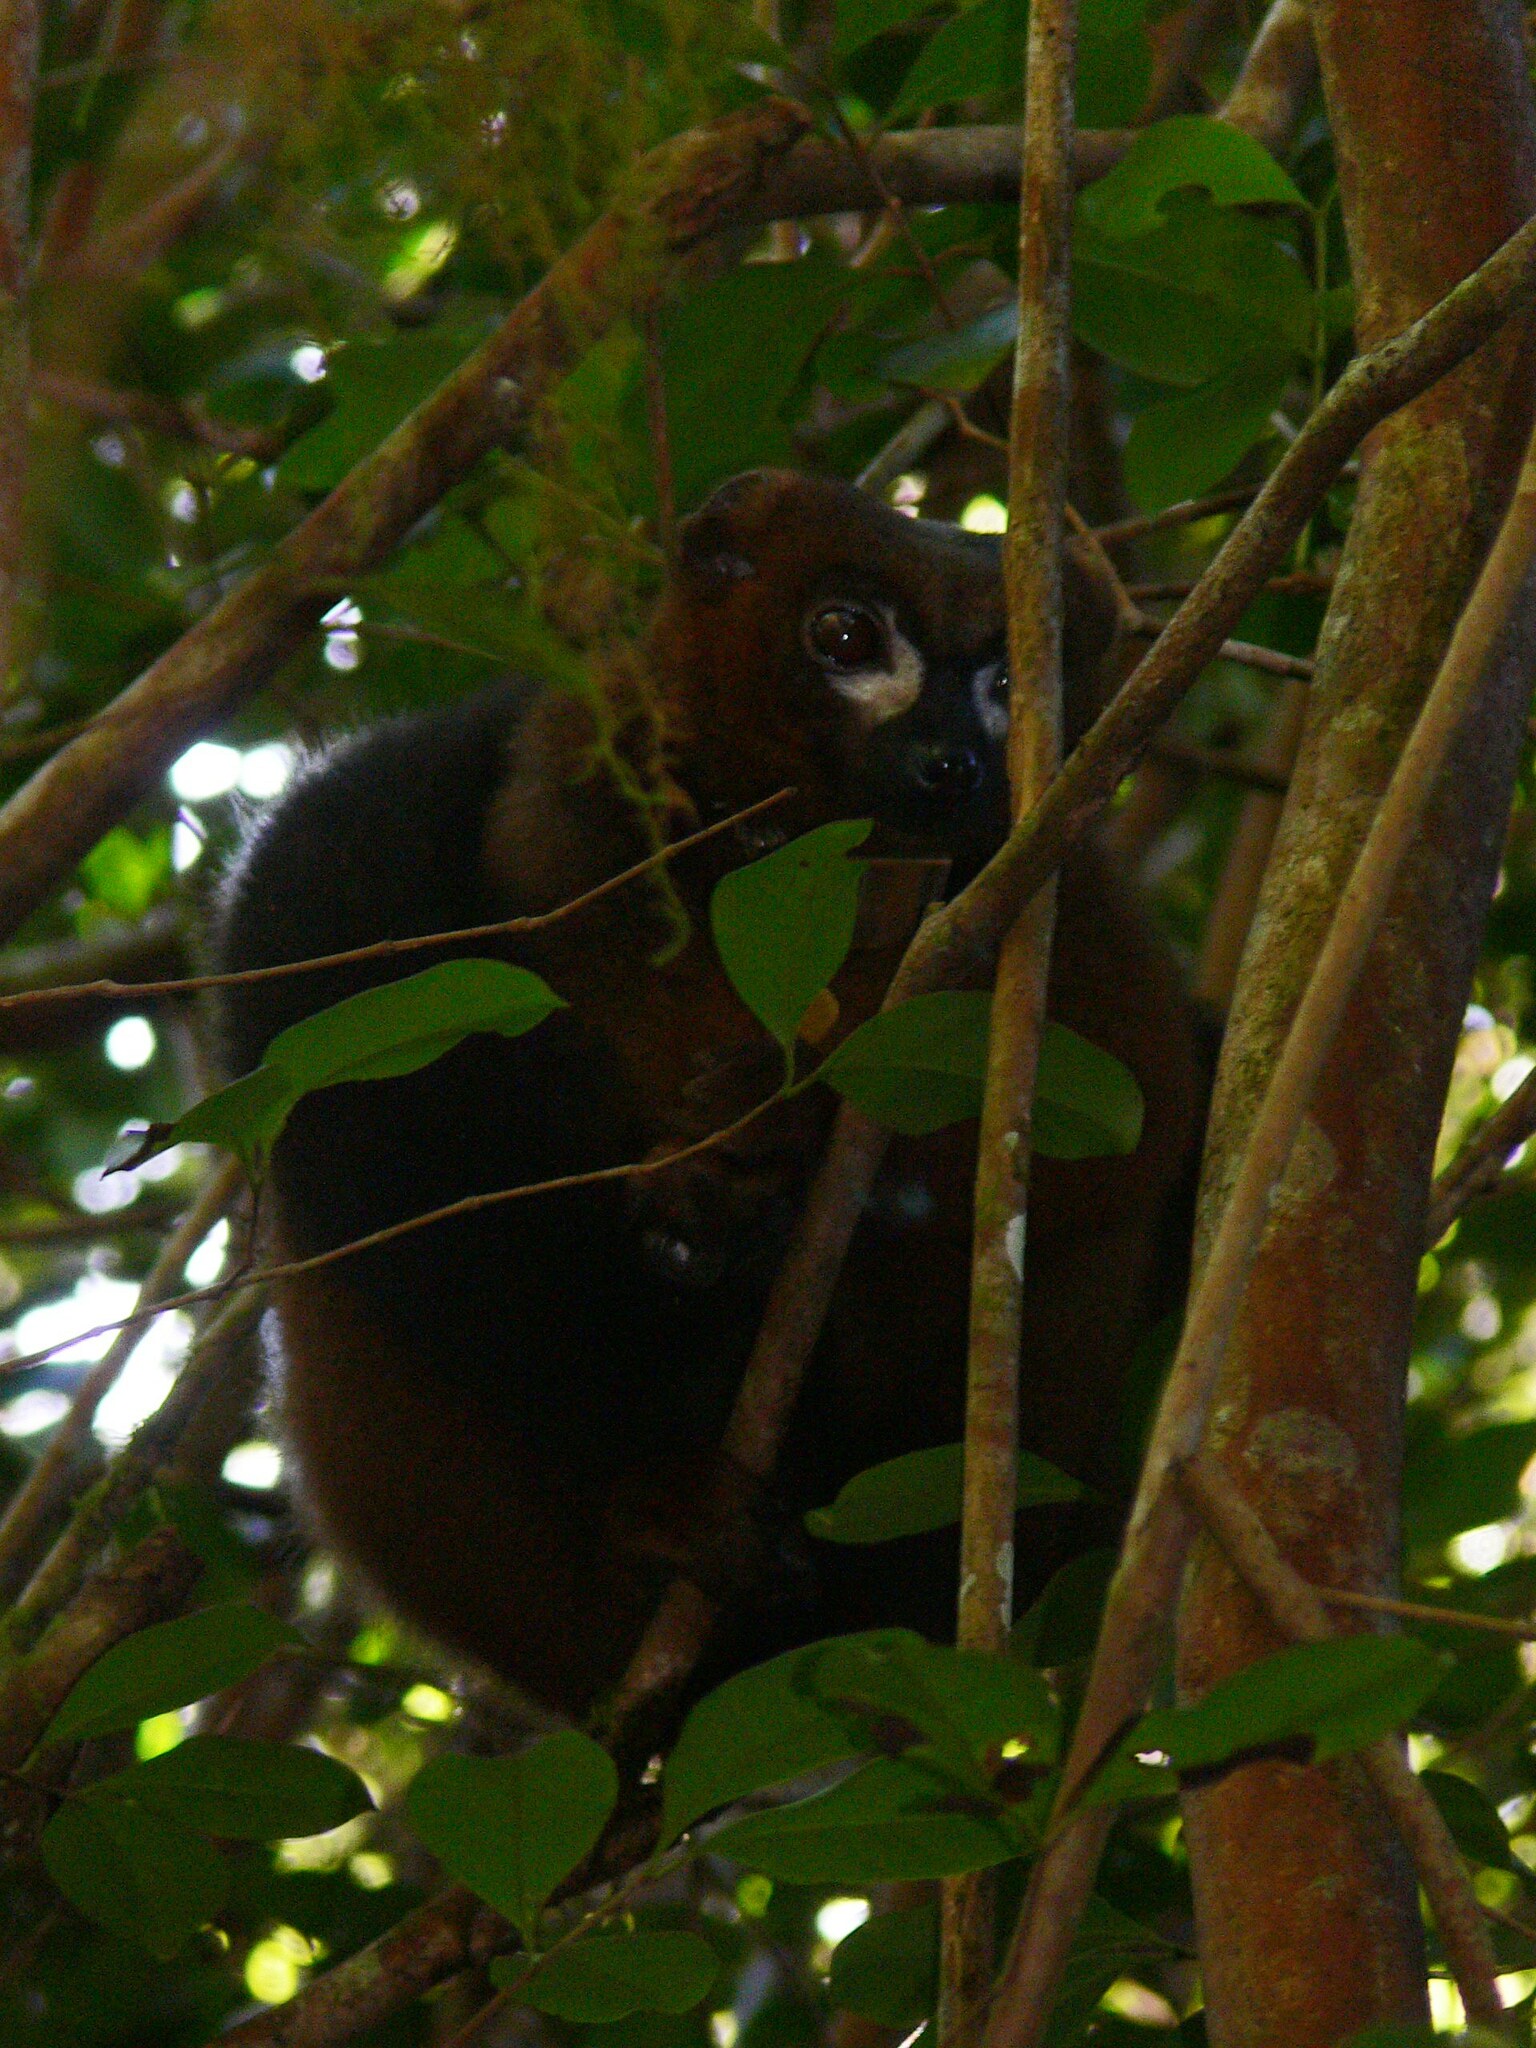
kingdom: Animalia
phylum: Chordata
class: Mammalia
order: Primates
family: Lemuridae
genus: Eulemur
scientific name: Eulemur rubriventer
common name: Red-bellied lemur
